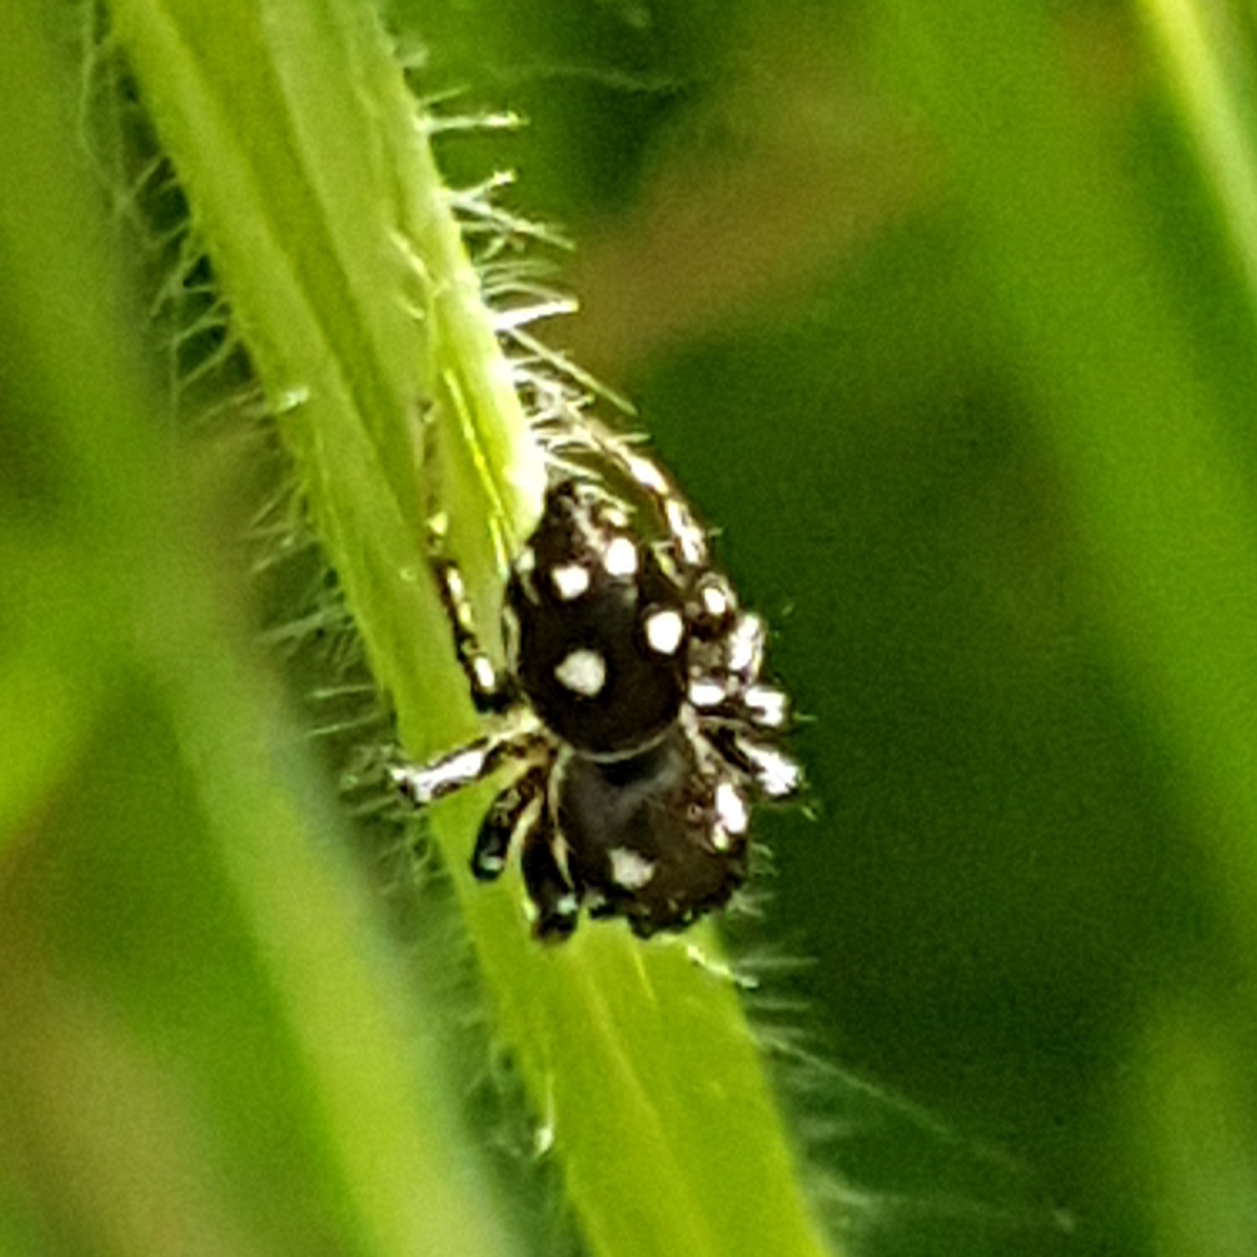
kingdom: Animalia
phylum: Arthropoda
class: Arachnida
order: Araneae
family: Salticidae
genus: Heliophanus
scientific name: Heliophanus apiatus
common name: Sun jumping spider
